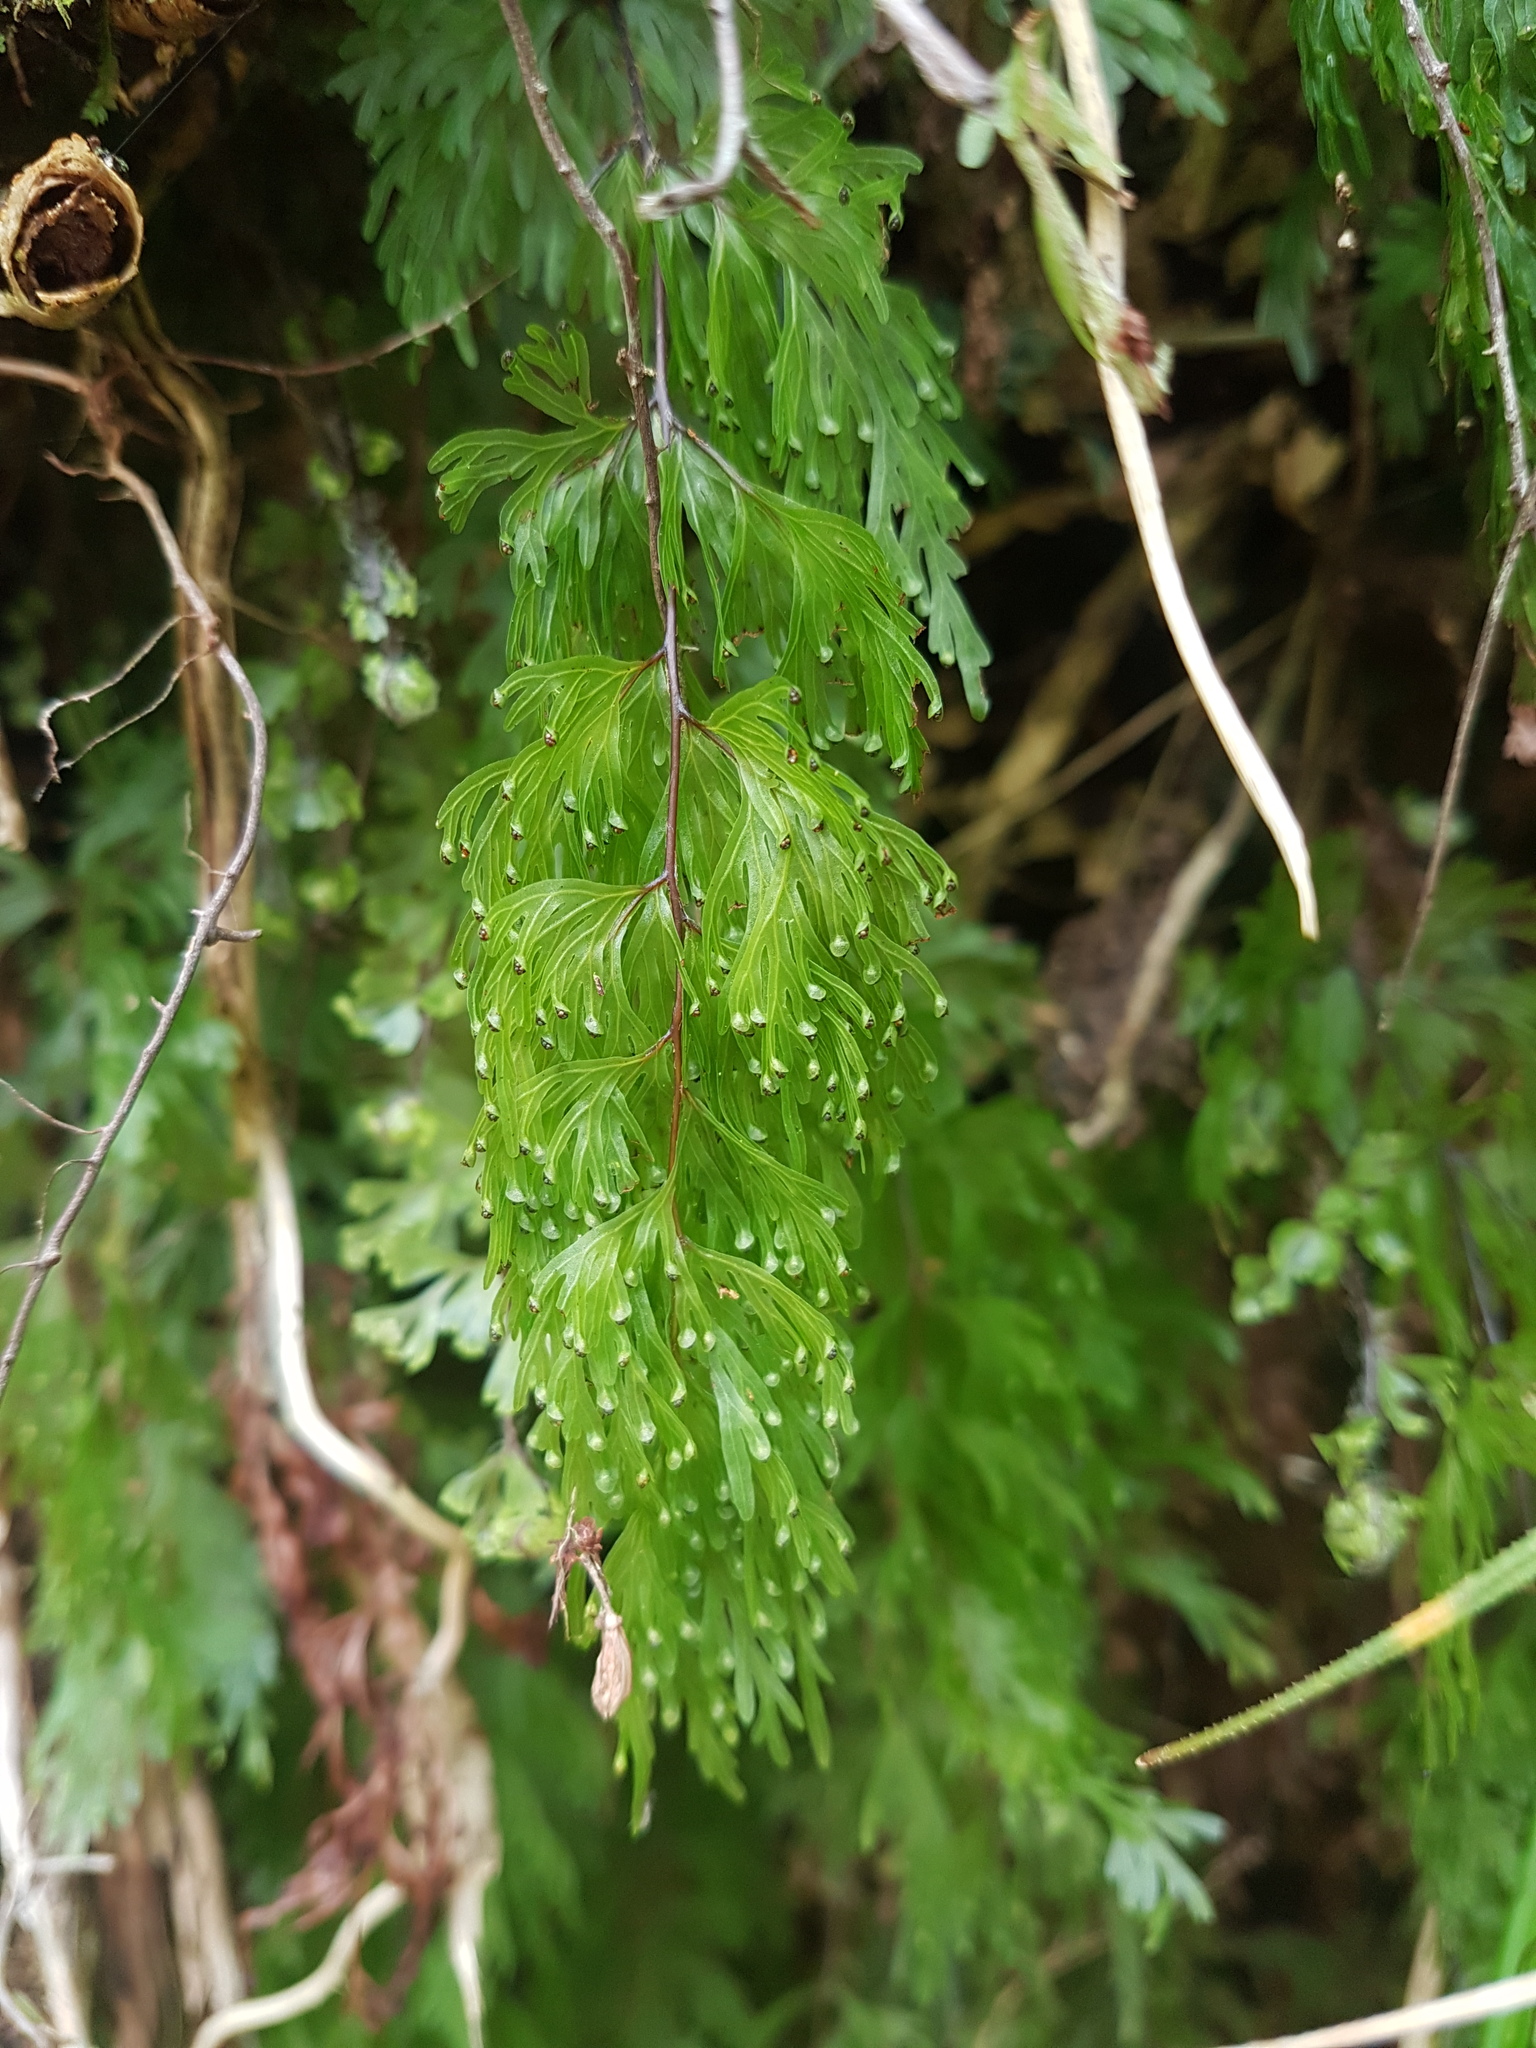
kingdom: Plantae
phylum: Tracheophyta
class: Polypodiopsida
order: Hymenophyllales
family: Hymenophyllaceae
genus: Hymenophyllum
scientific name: Hymenophyllum flabellatum
